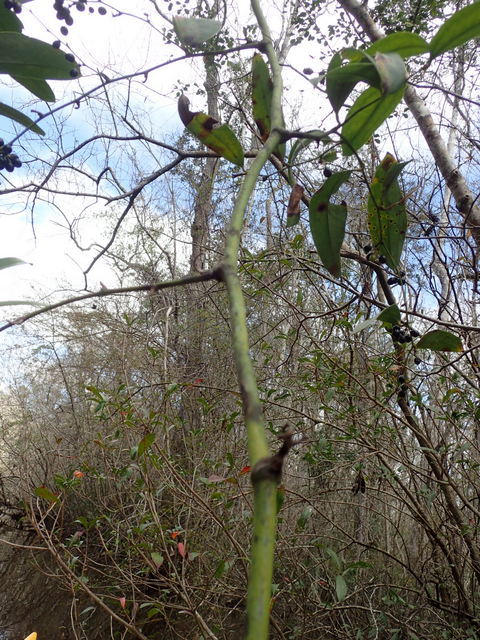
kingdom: Plantae
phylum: Tracheophyta
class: Liliopsida
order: Liliales
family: Smilacaceae
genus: Smilax
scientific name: Smilax laurifolia
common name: Bamboovine
